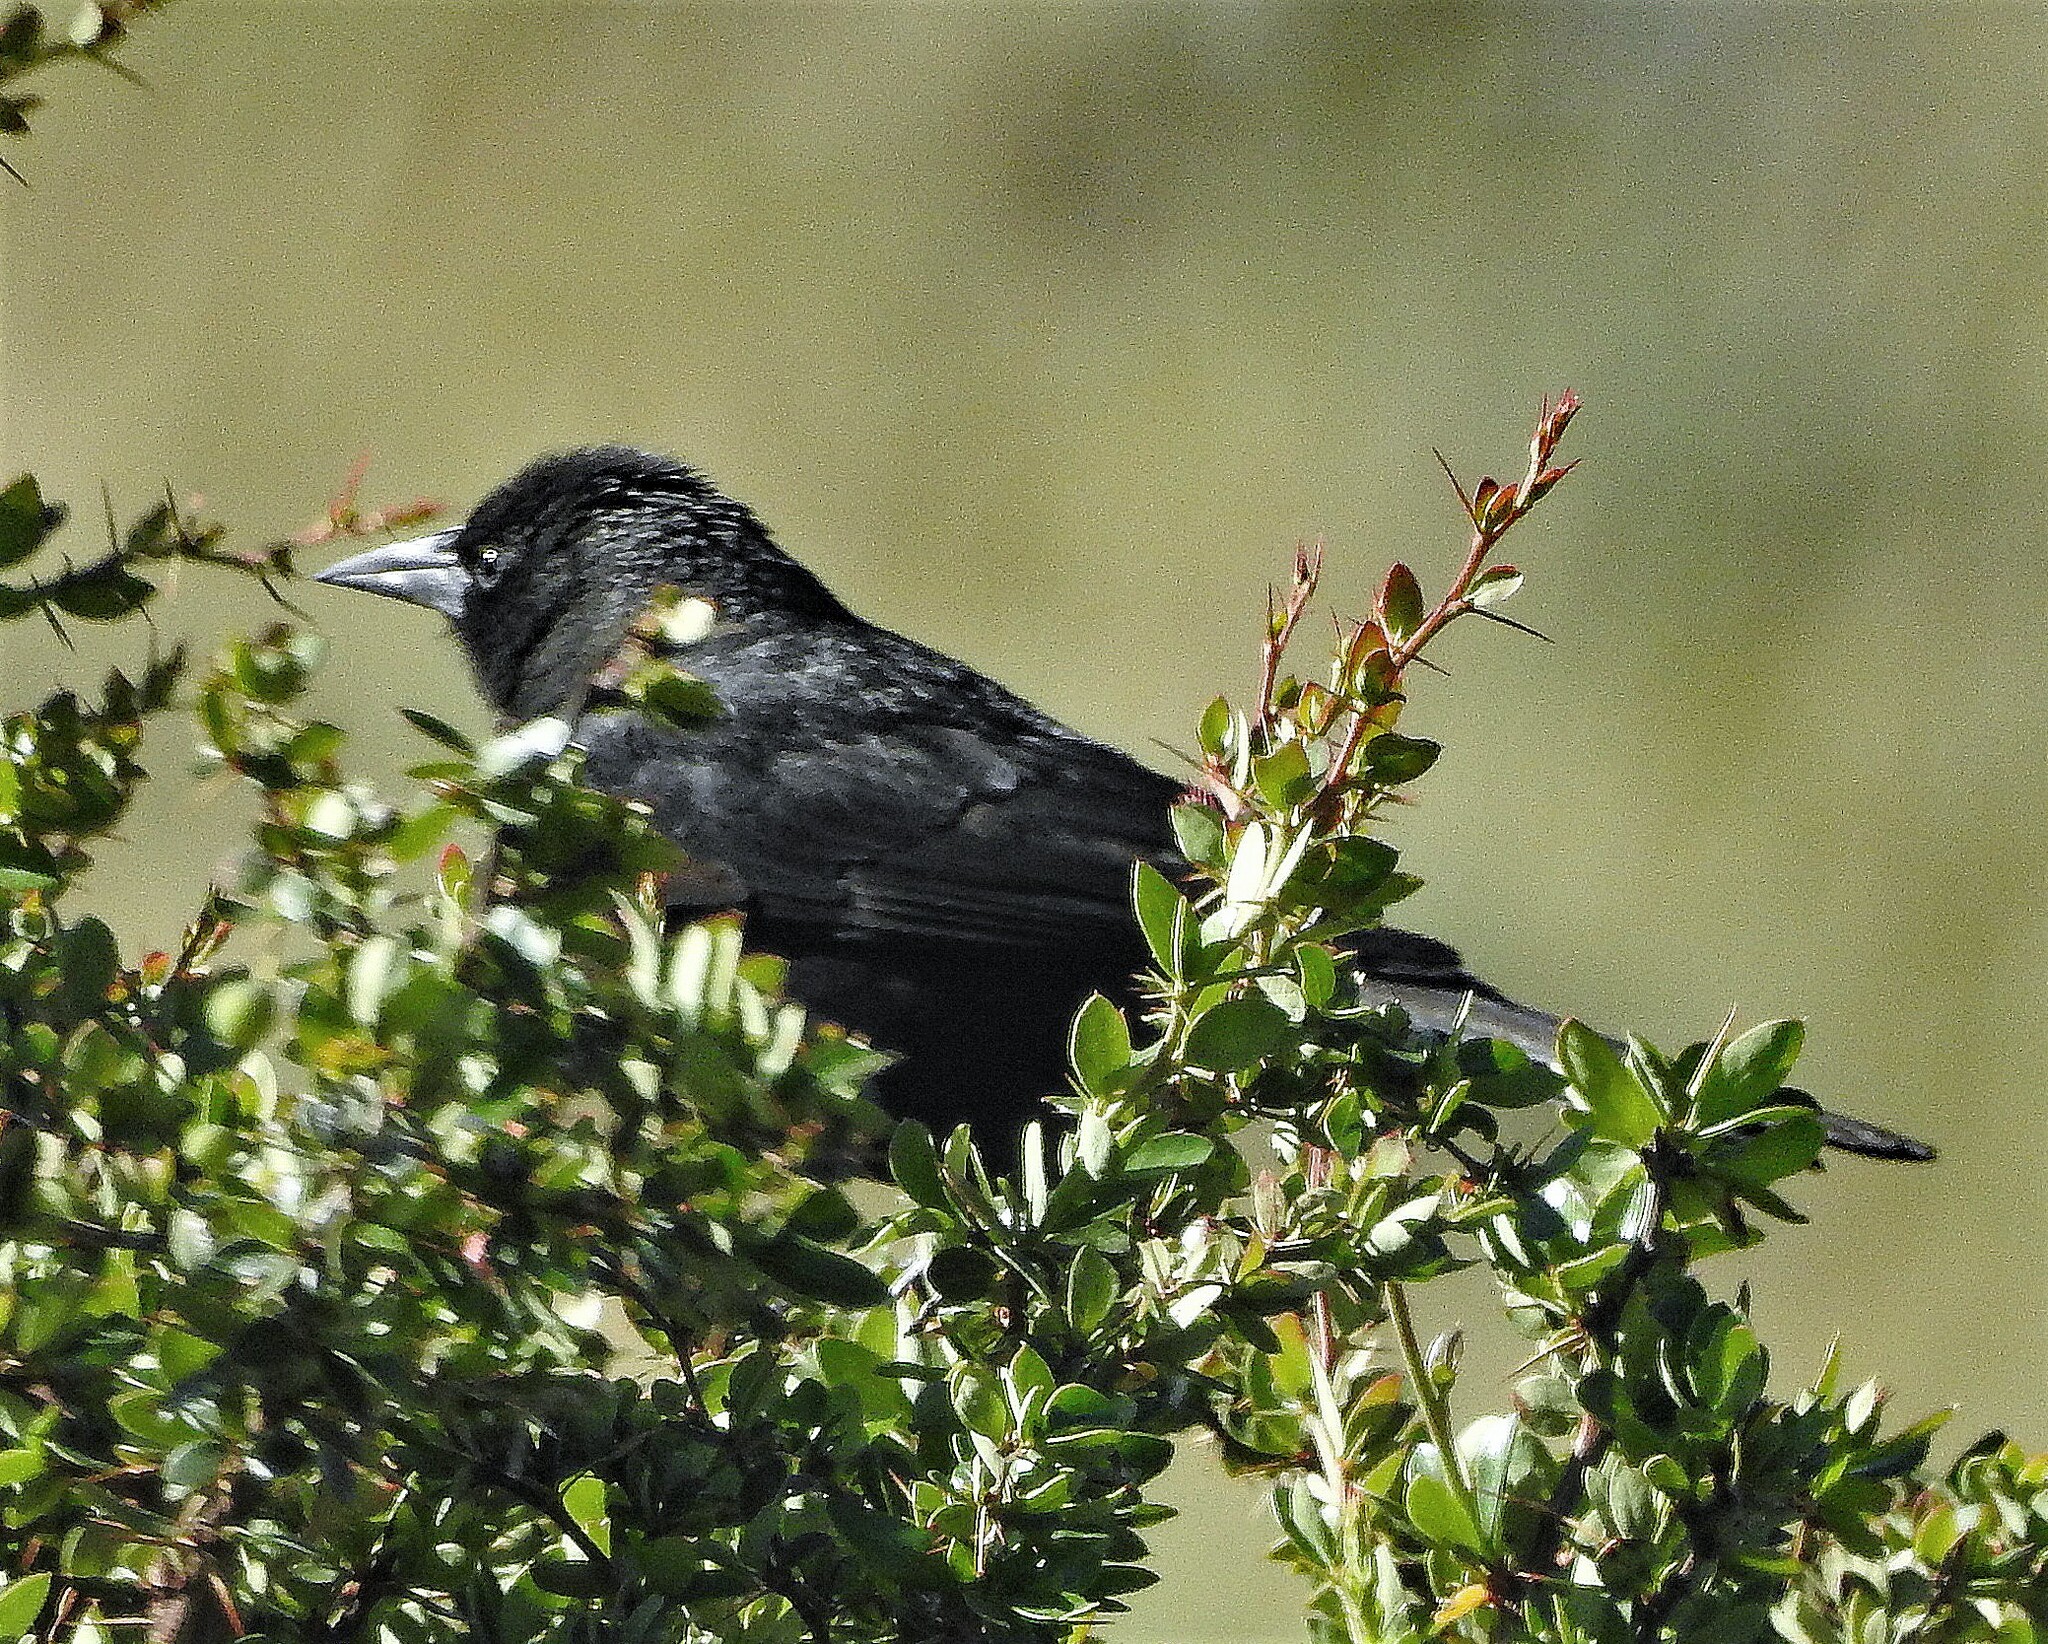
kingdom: Animalia
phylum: Chordata
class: Aves
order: Passeriformes
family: Icteridae
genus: Curaeus
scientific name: Curaeus curaeus
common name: Austral blackbird
